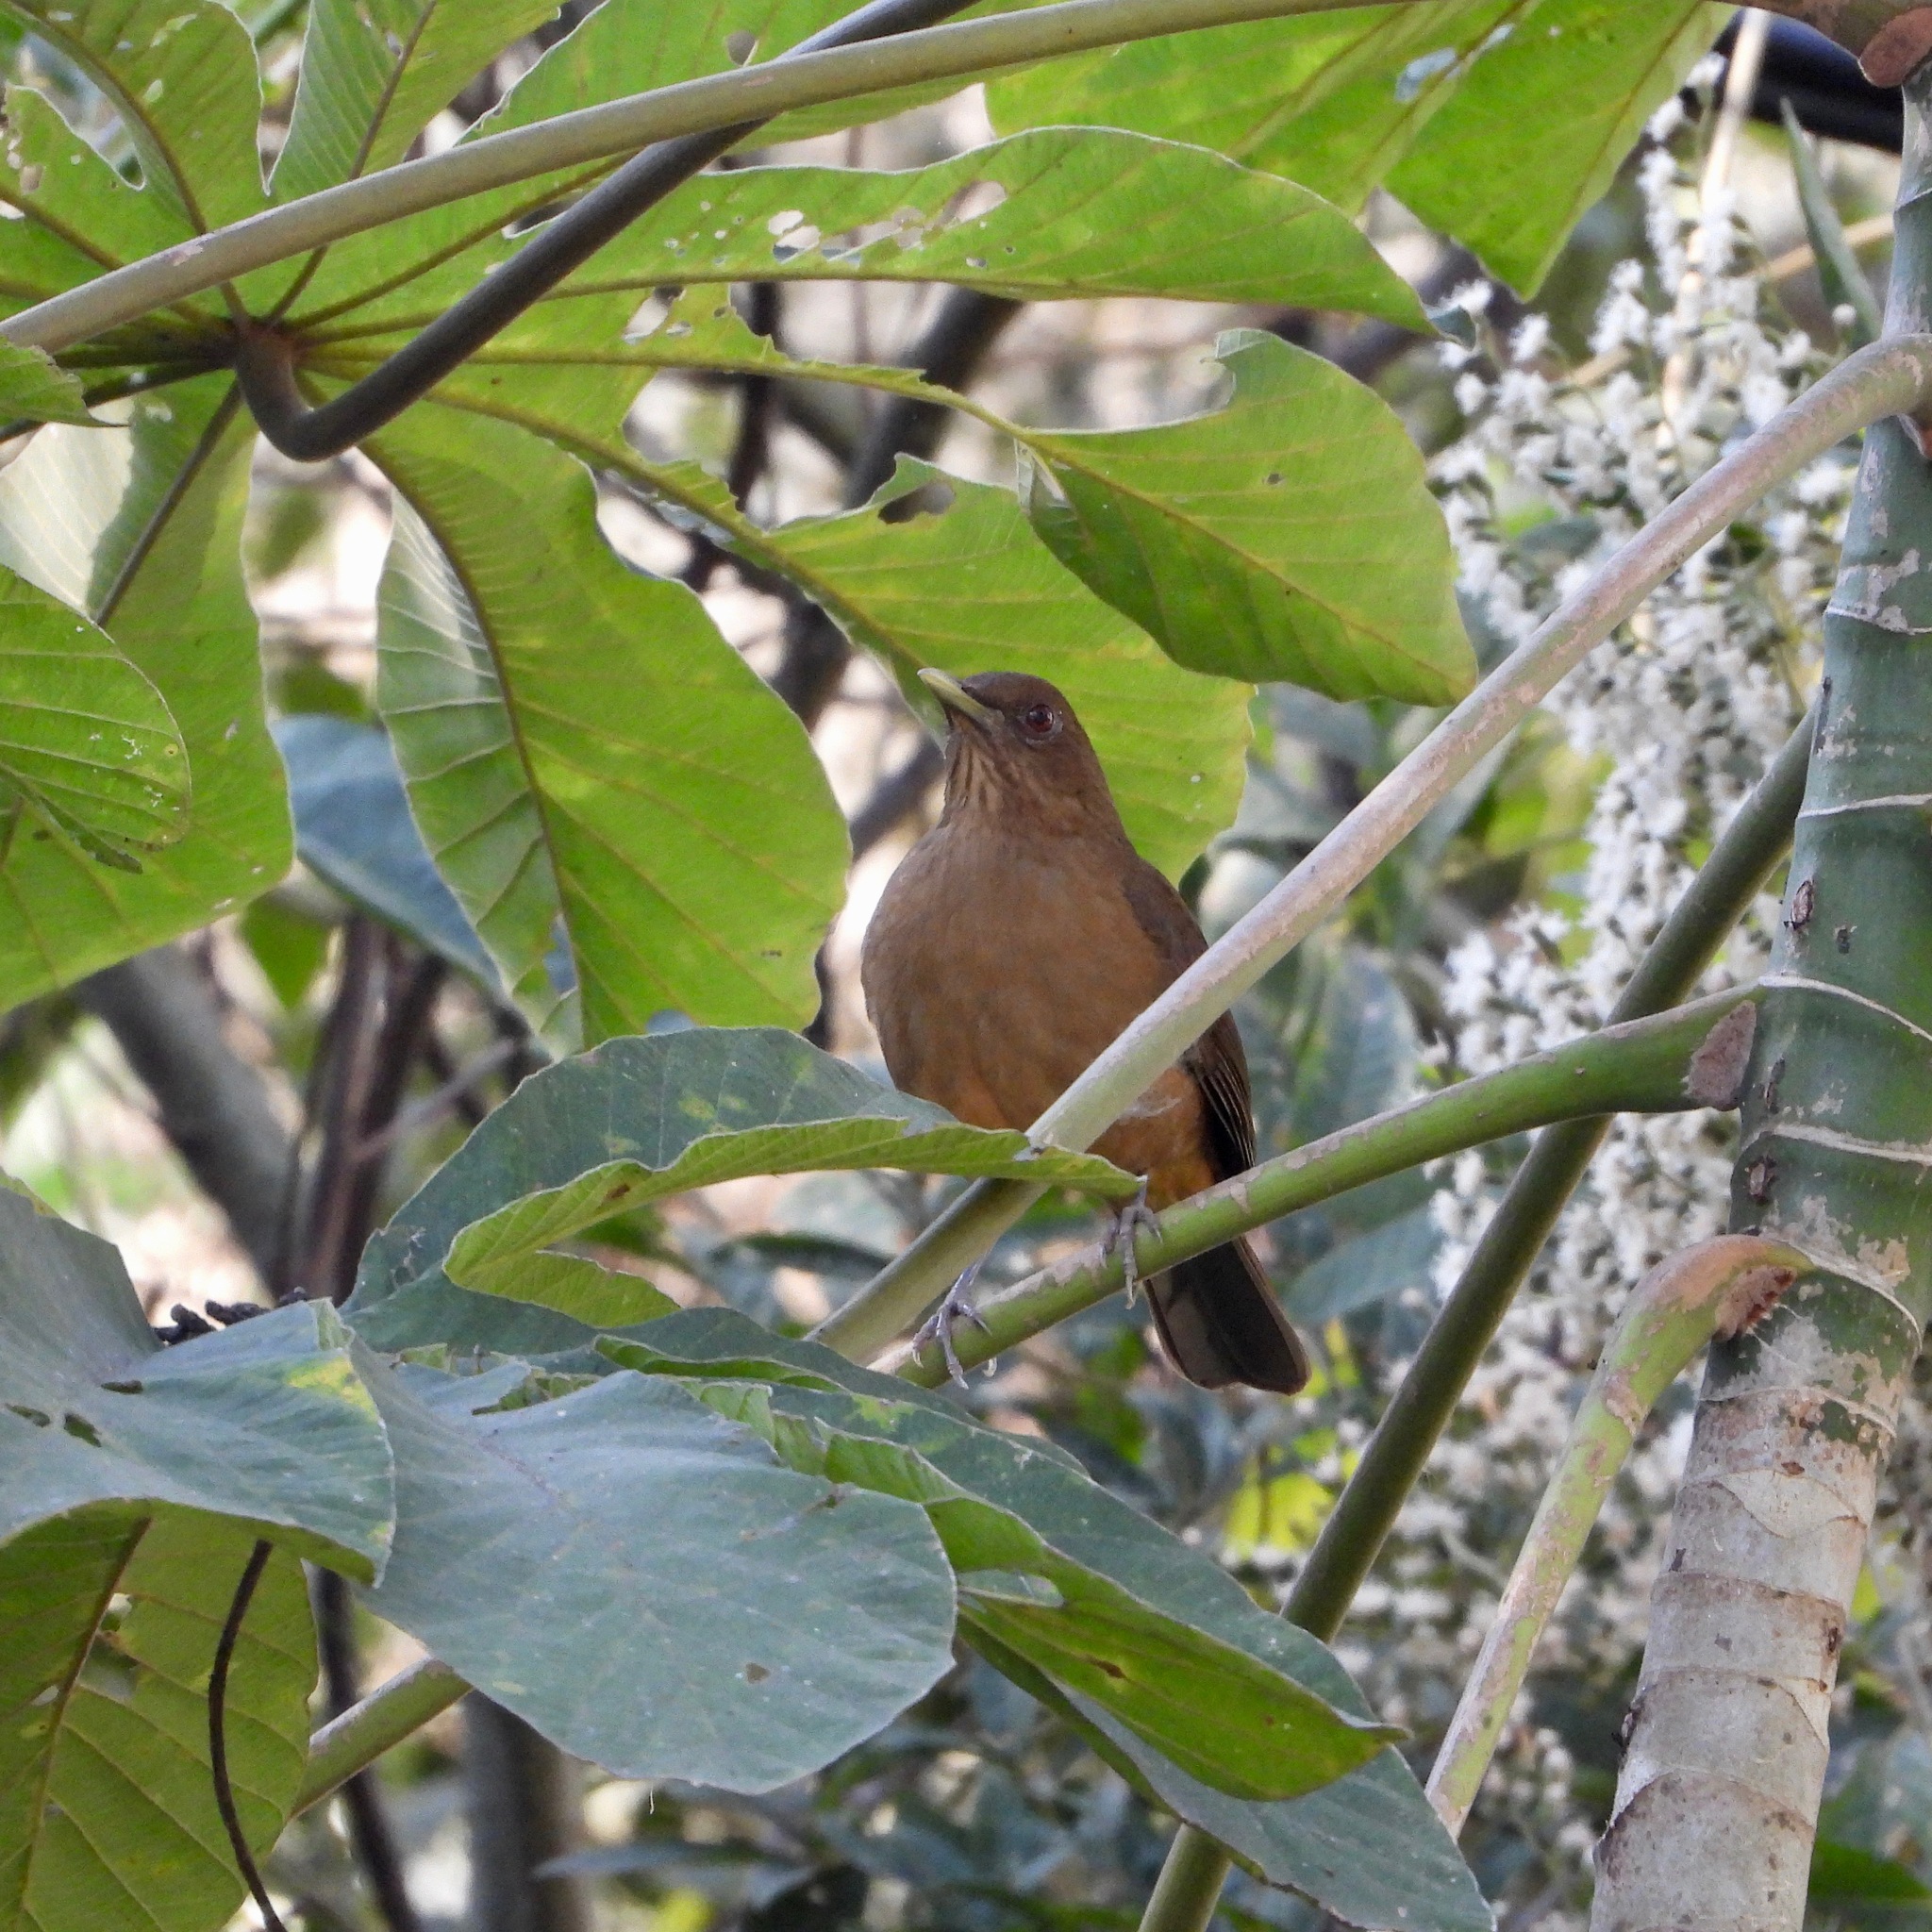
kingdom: Animalia
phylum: Chordata
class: Aves
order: Passeriformes
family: Turdidae
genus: Turdus
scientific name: Turdus grayi
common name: Clay-colored thrush
